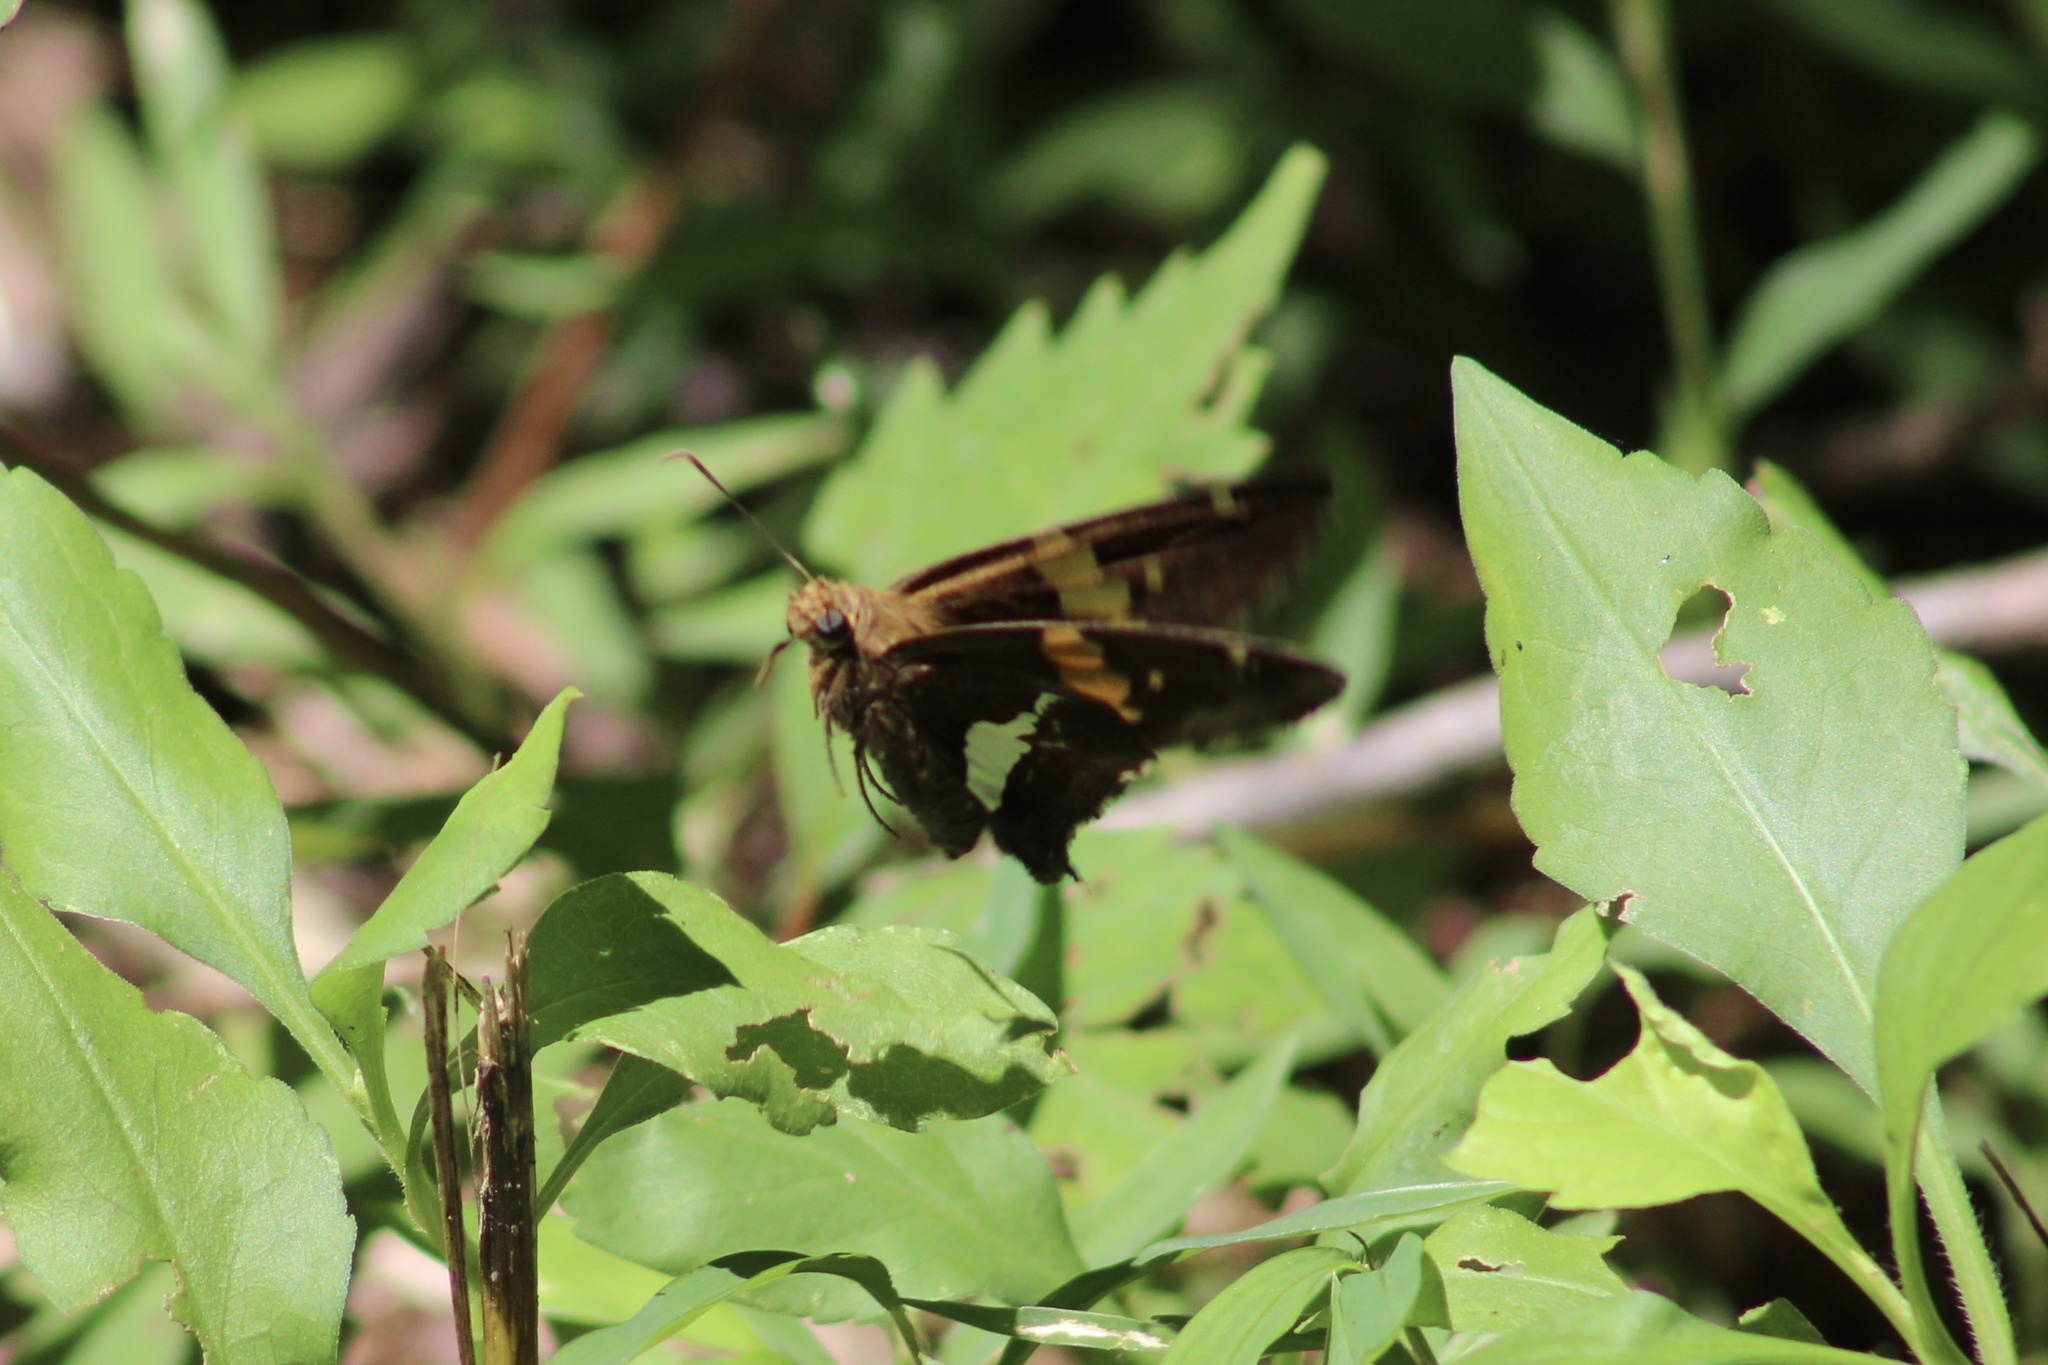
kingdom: Animalia
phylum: Arthropoda
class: Insecta
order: Lepidoptera
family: Hesperiidae
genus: Epargyreus
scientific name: Epargyreus clarus
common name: Silver-spotted skipper
